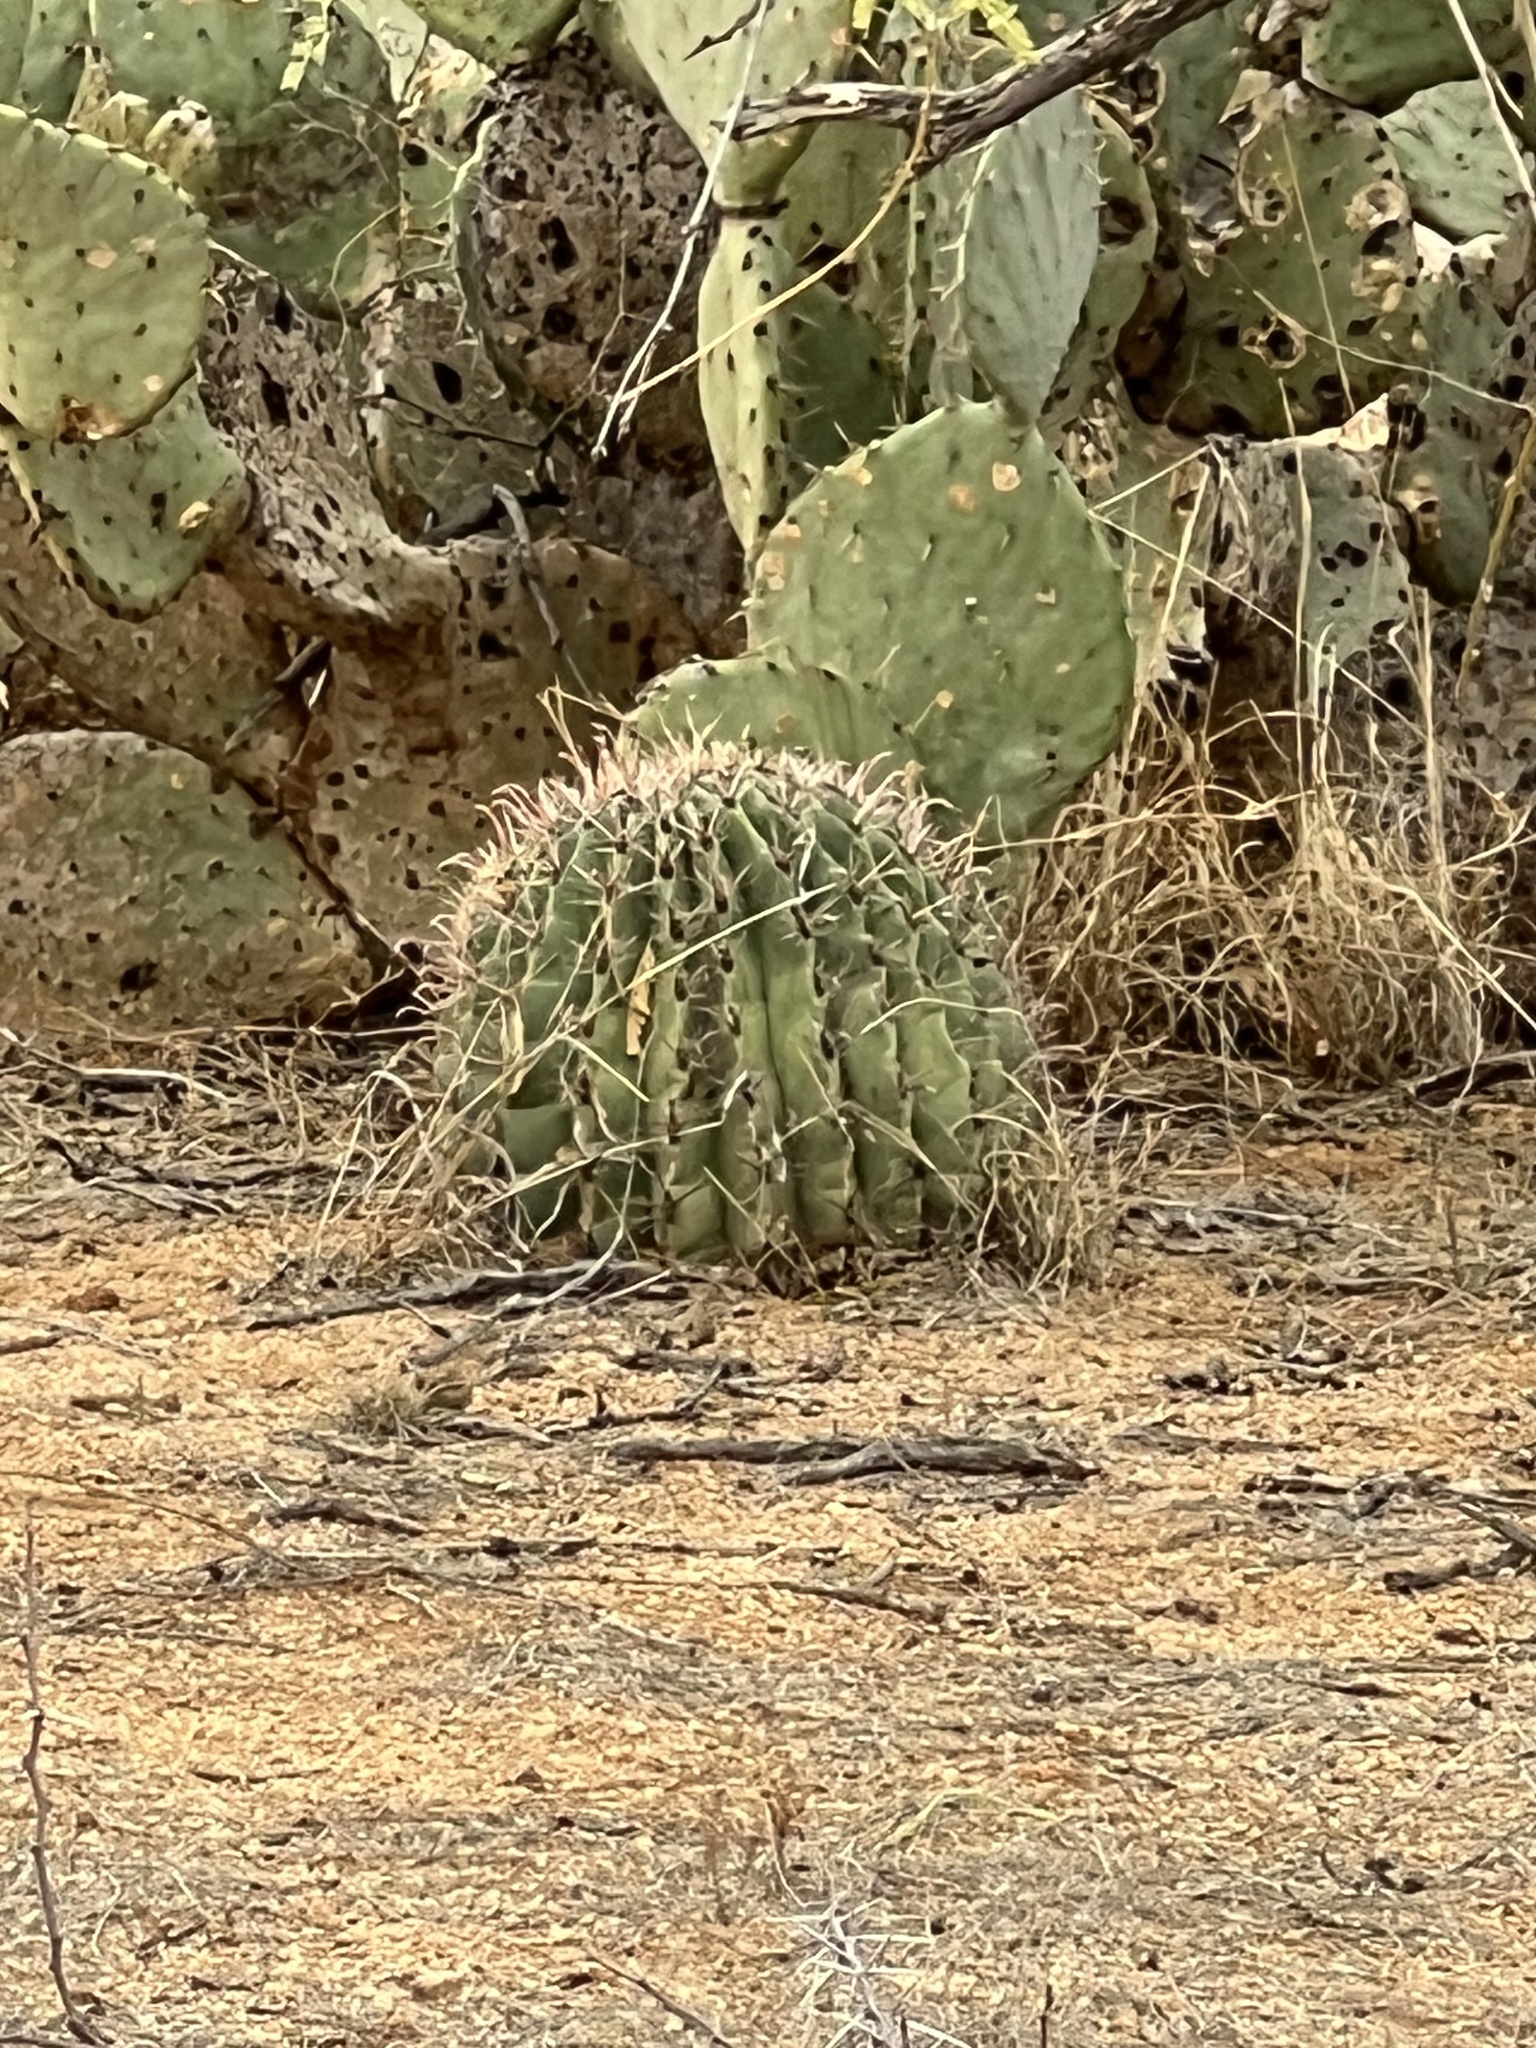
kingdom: Plantae
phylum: Tracheophyta
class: Magnoliopsida
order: Caryophyllales
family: Cactaceae
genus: Ferocactus
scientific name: Ferocactus wislizeni
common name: Candy barrel cactus
